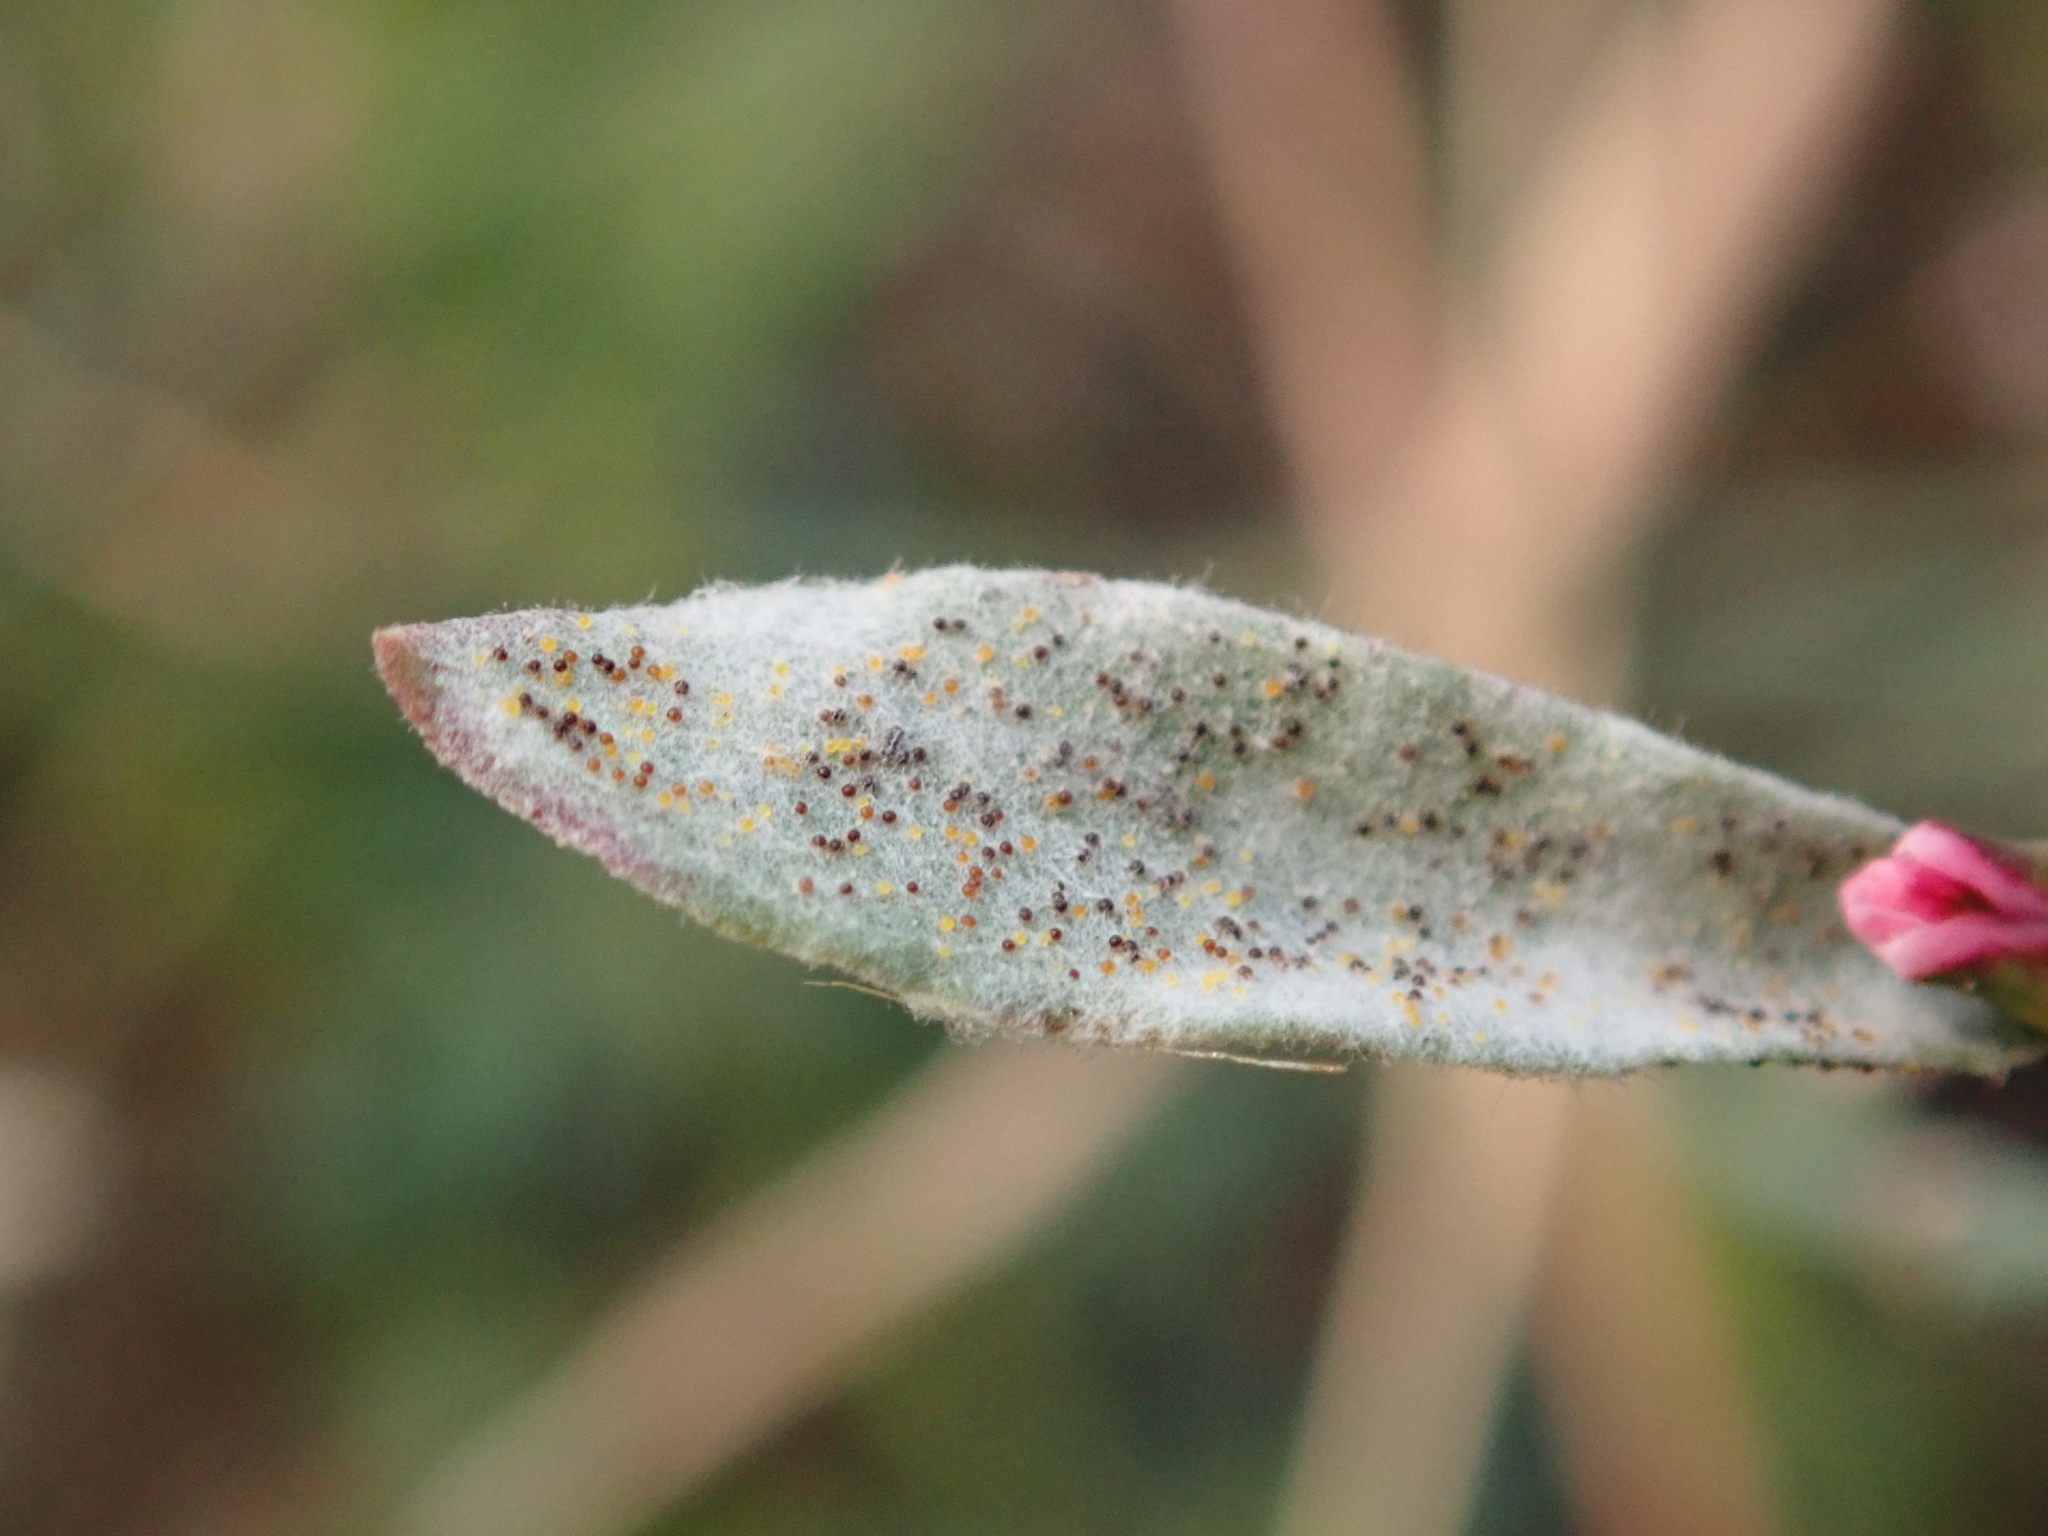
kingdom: Fungi
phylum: Ascomycota
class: Leotiomycetes
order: Helotiales
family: Erysiphaceae
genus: Erysiphe
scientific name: Erysiphe polygoni
